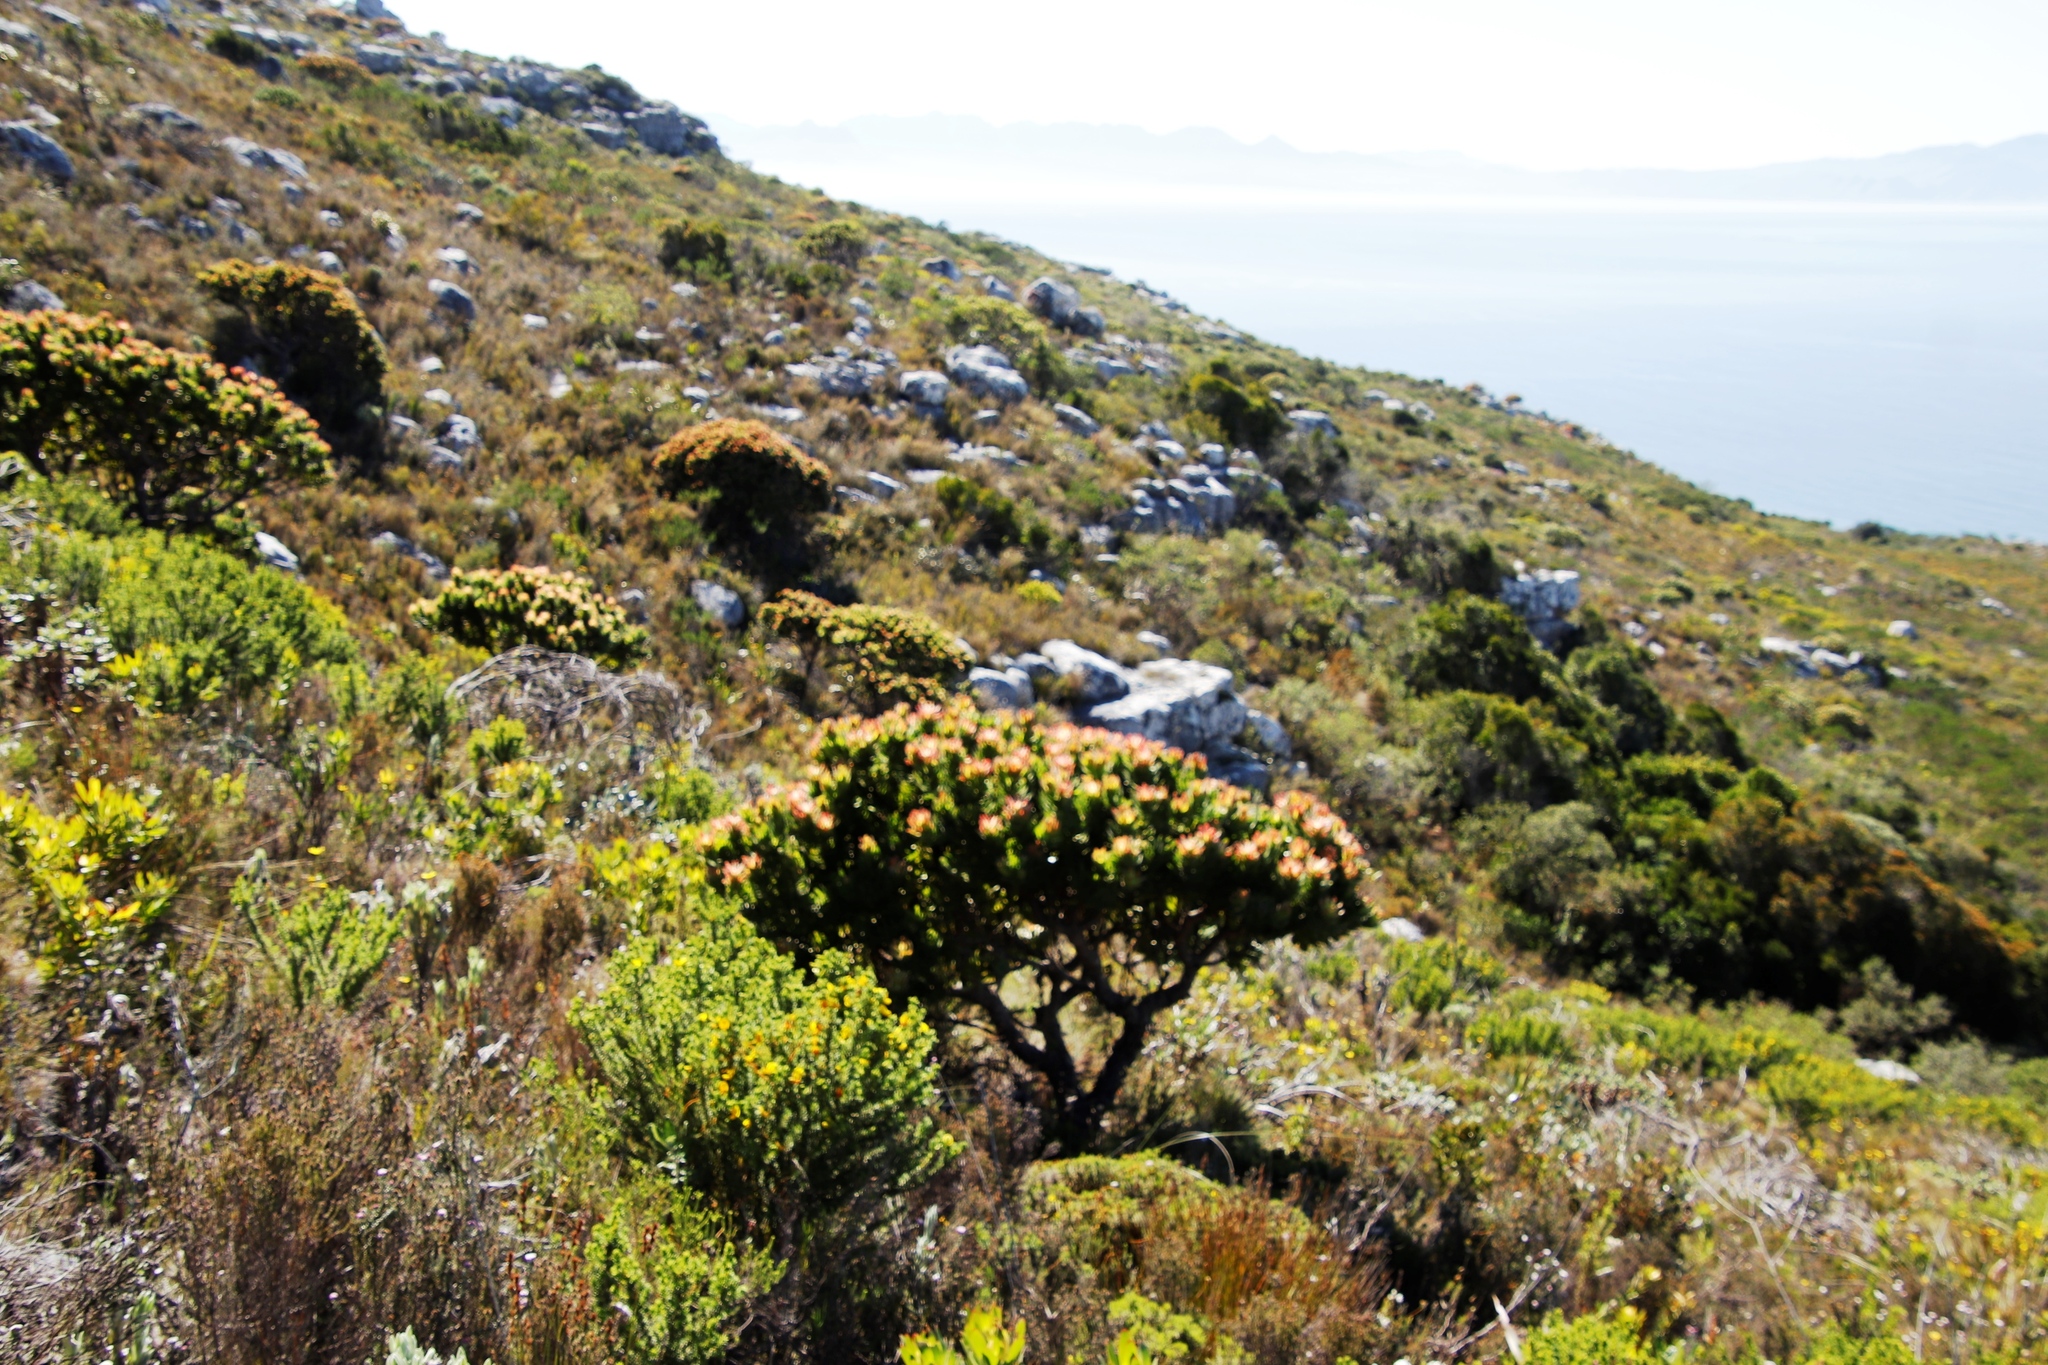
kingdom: Plantae
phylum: Tracheophyta
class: Magnoliopsida
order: Proteales
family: Proteaceae
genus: Mimetes
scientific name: Mimetes fimbriifolius
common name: Fringed bottlebrush
